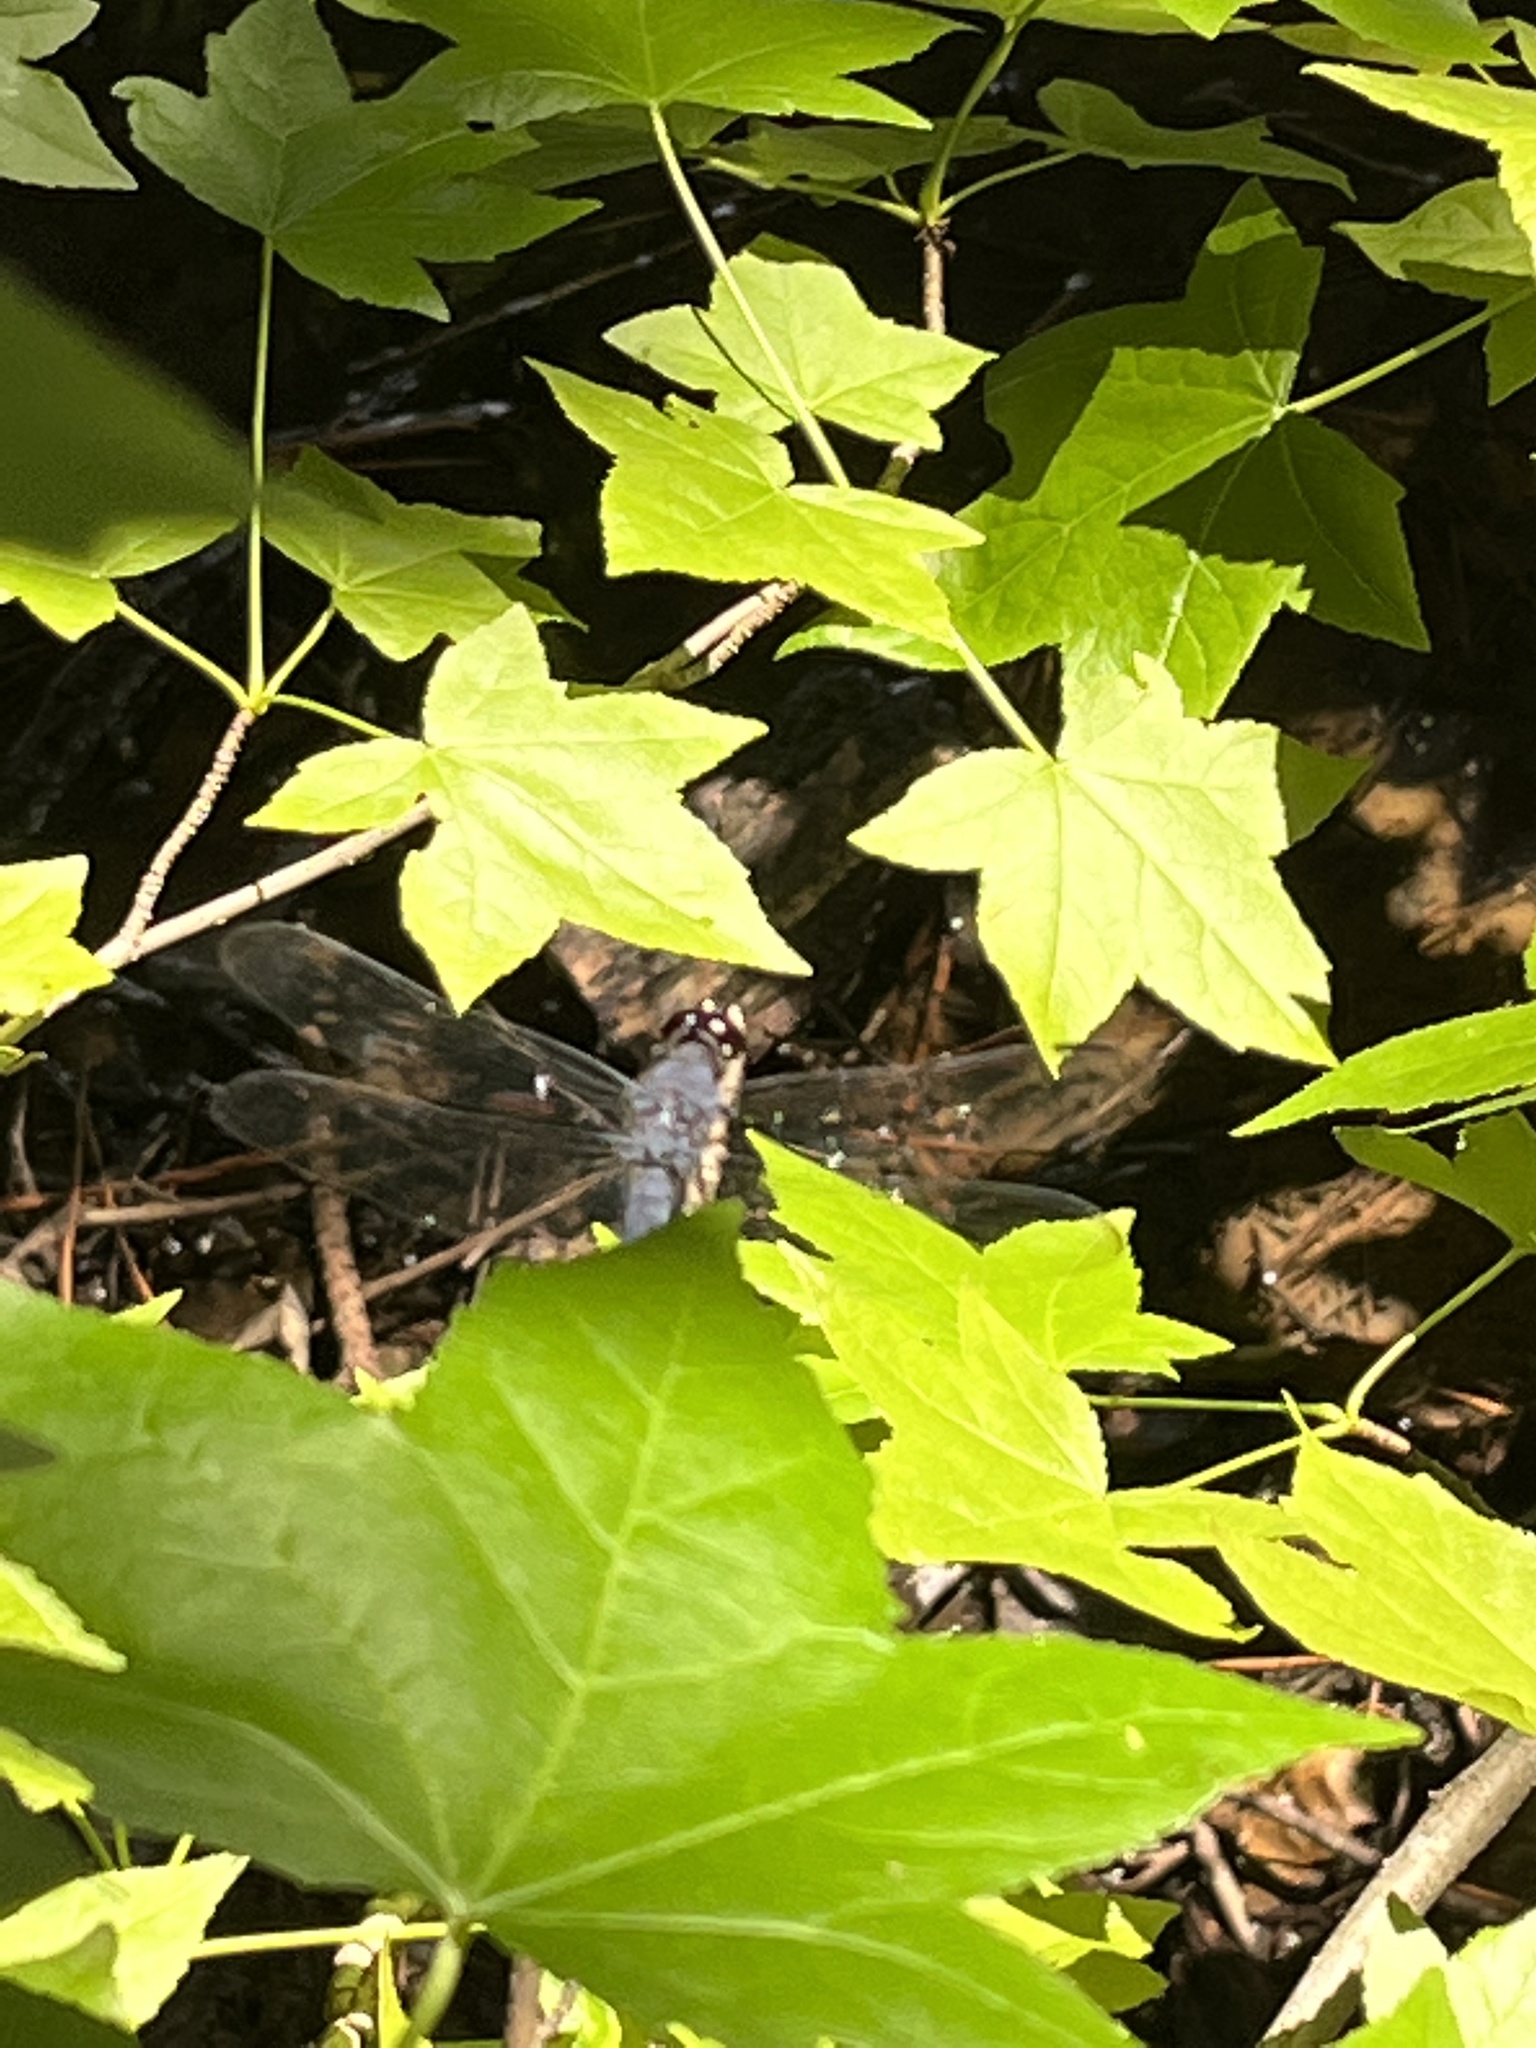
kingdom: Animalia
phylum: Arthropoda
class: Insecta
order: Odonata
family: Libellulidae
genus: Libellula
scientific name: Libellula incesta
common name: Slaty skimmer
